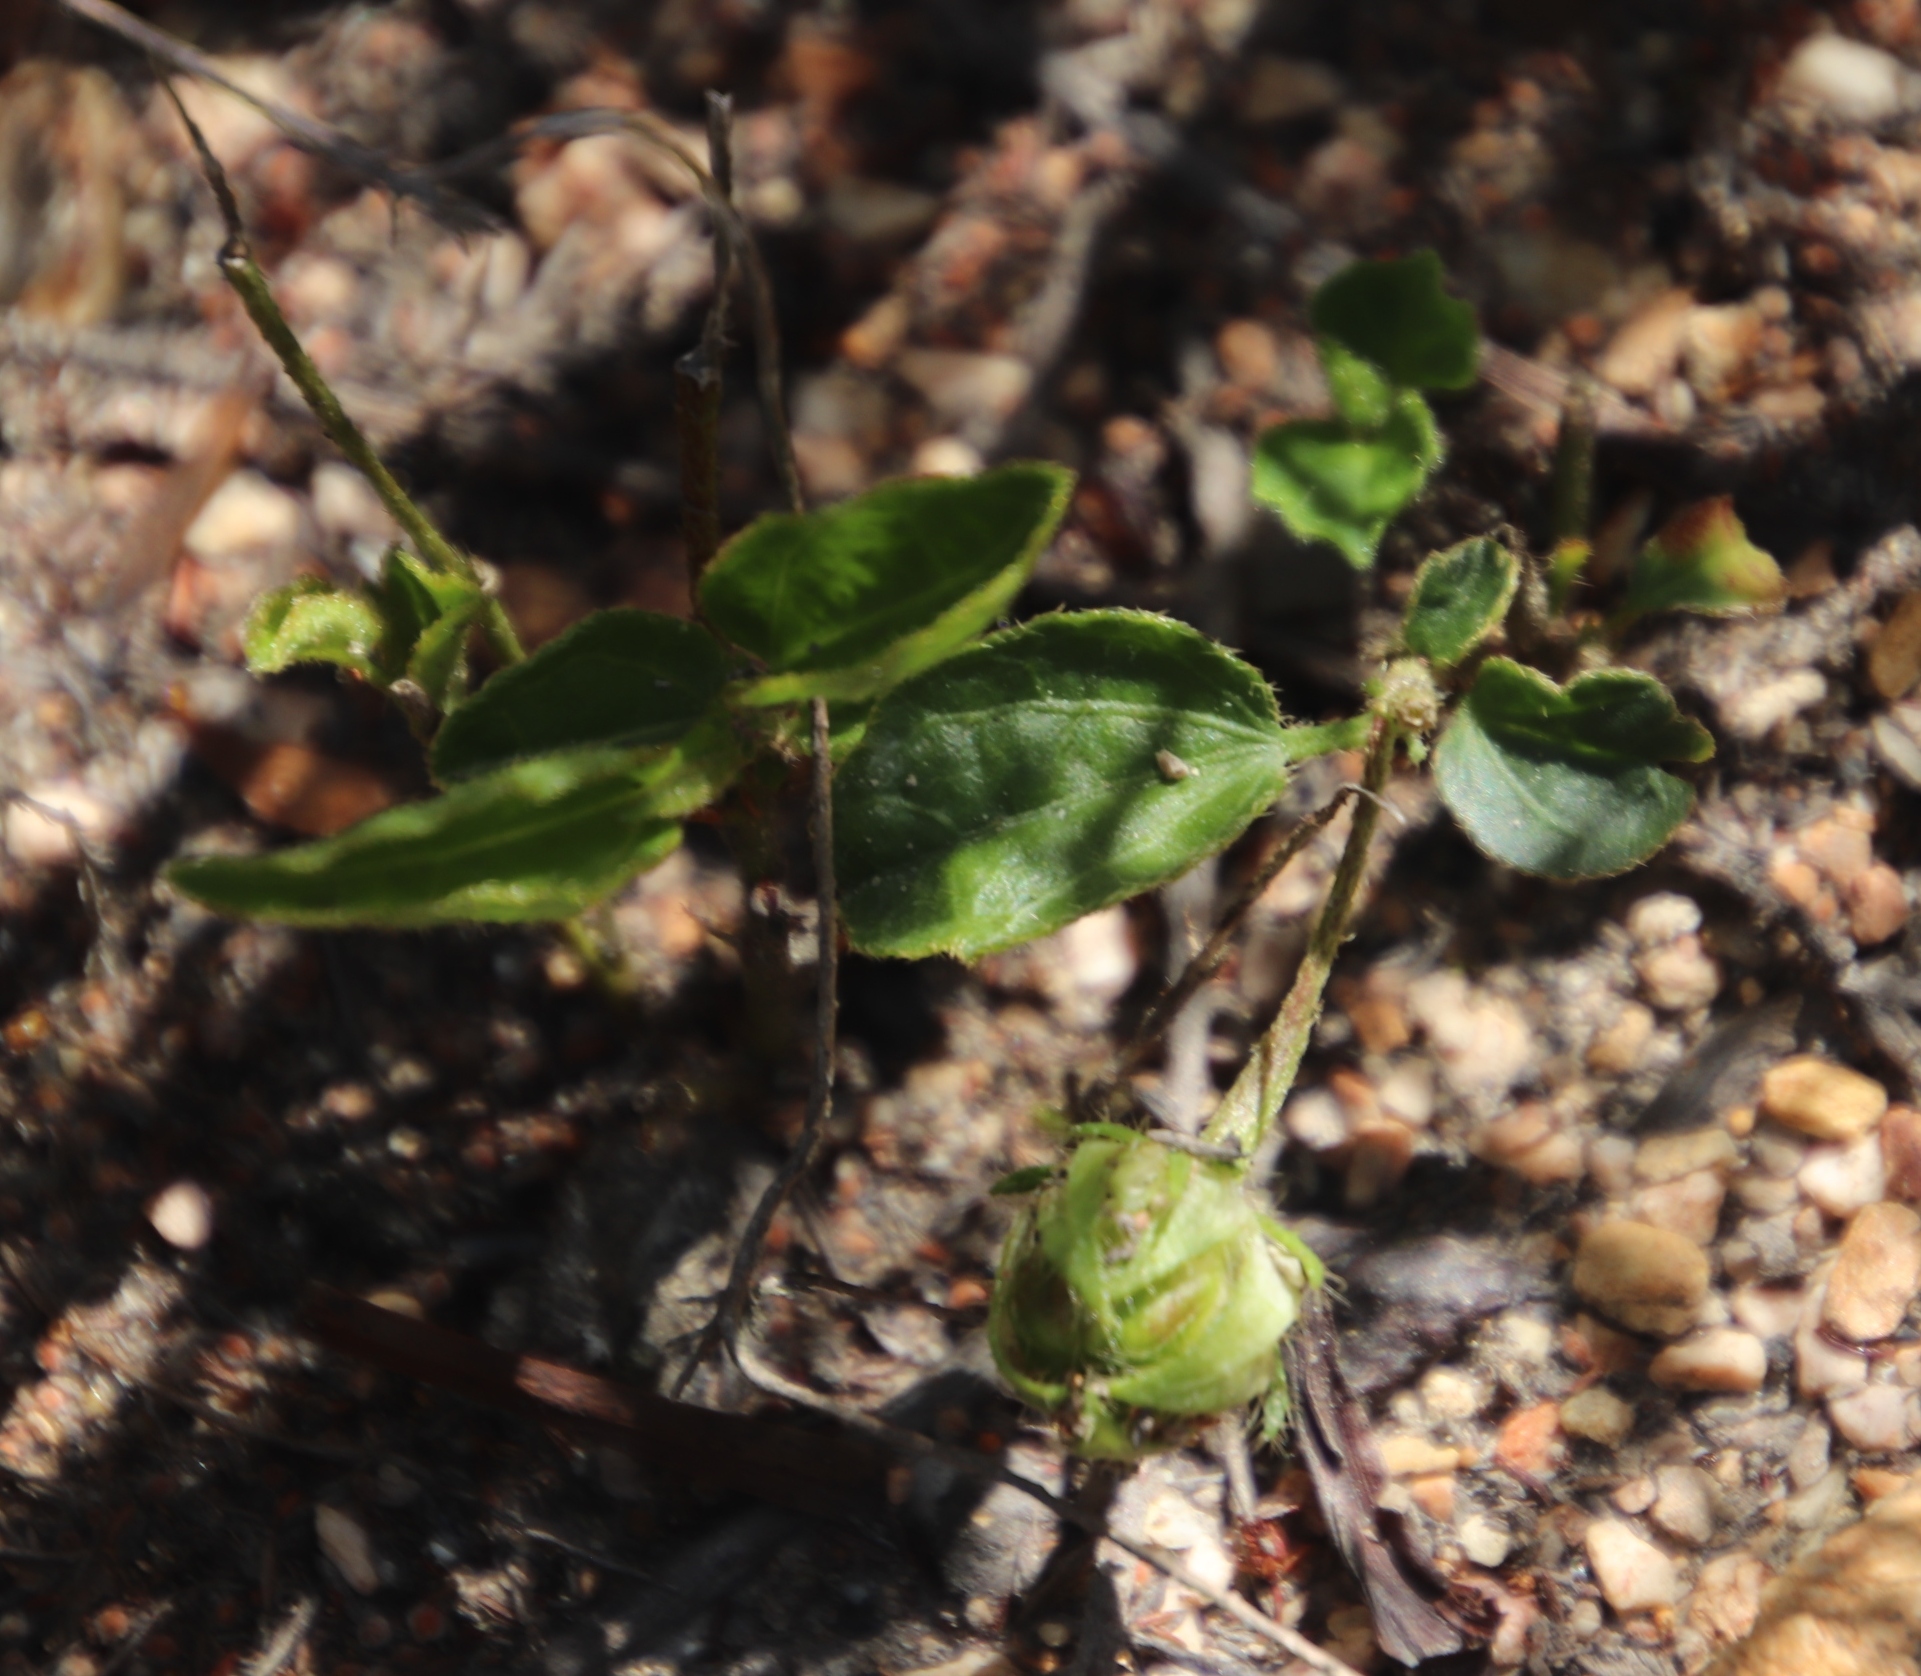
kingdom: Plantae
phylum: Tracheophyta
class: Magnoliopsida
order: Malvales
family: Malvaceae
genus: Hibiscus
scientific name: Hibiscus aethiopicus
